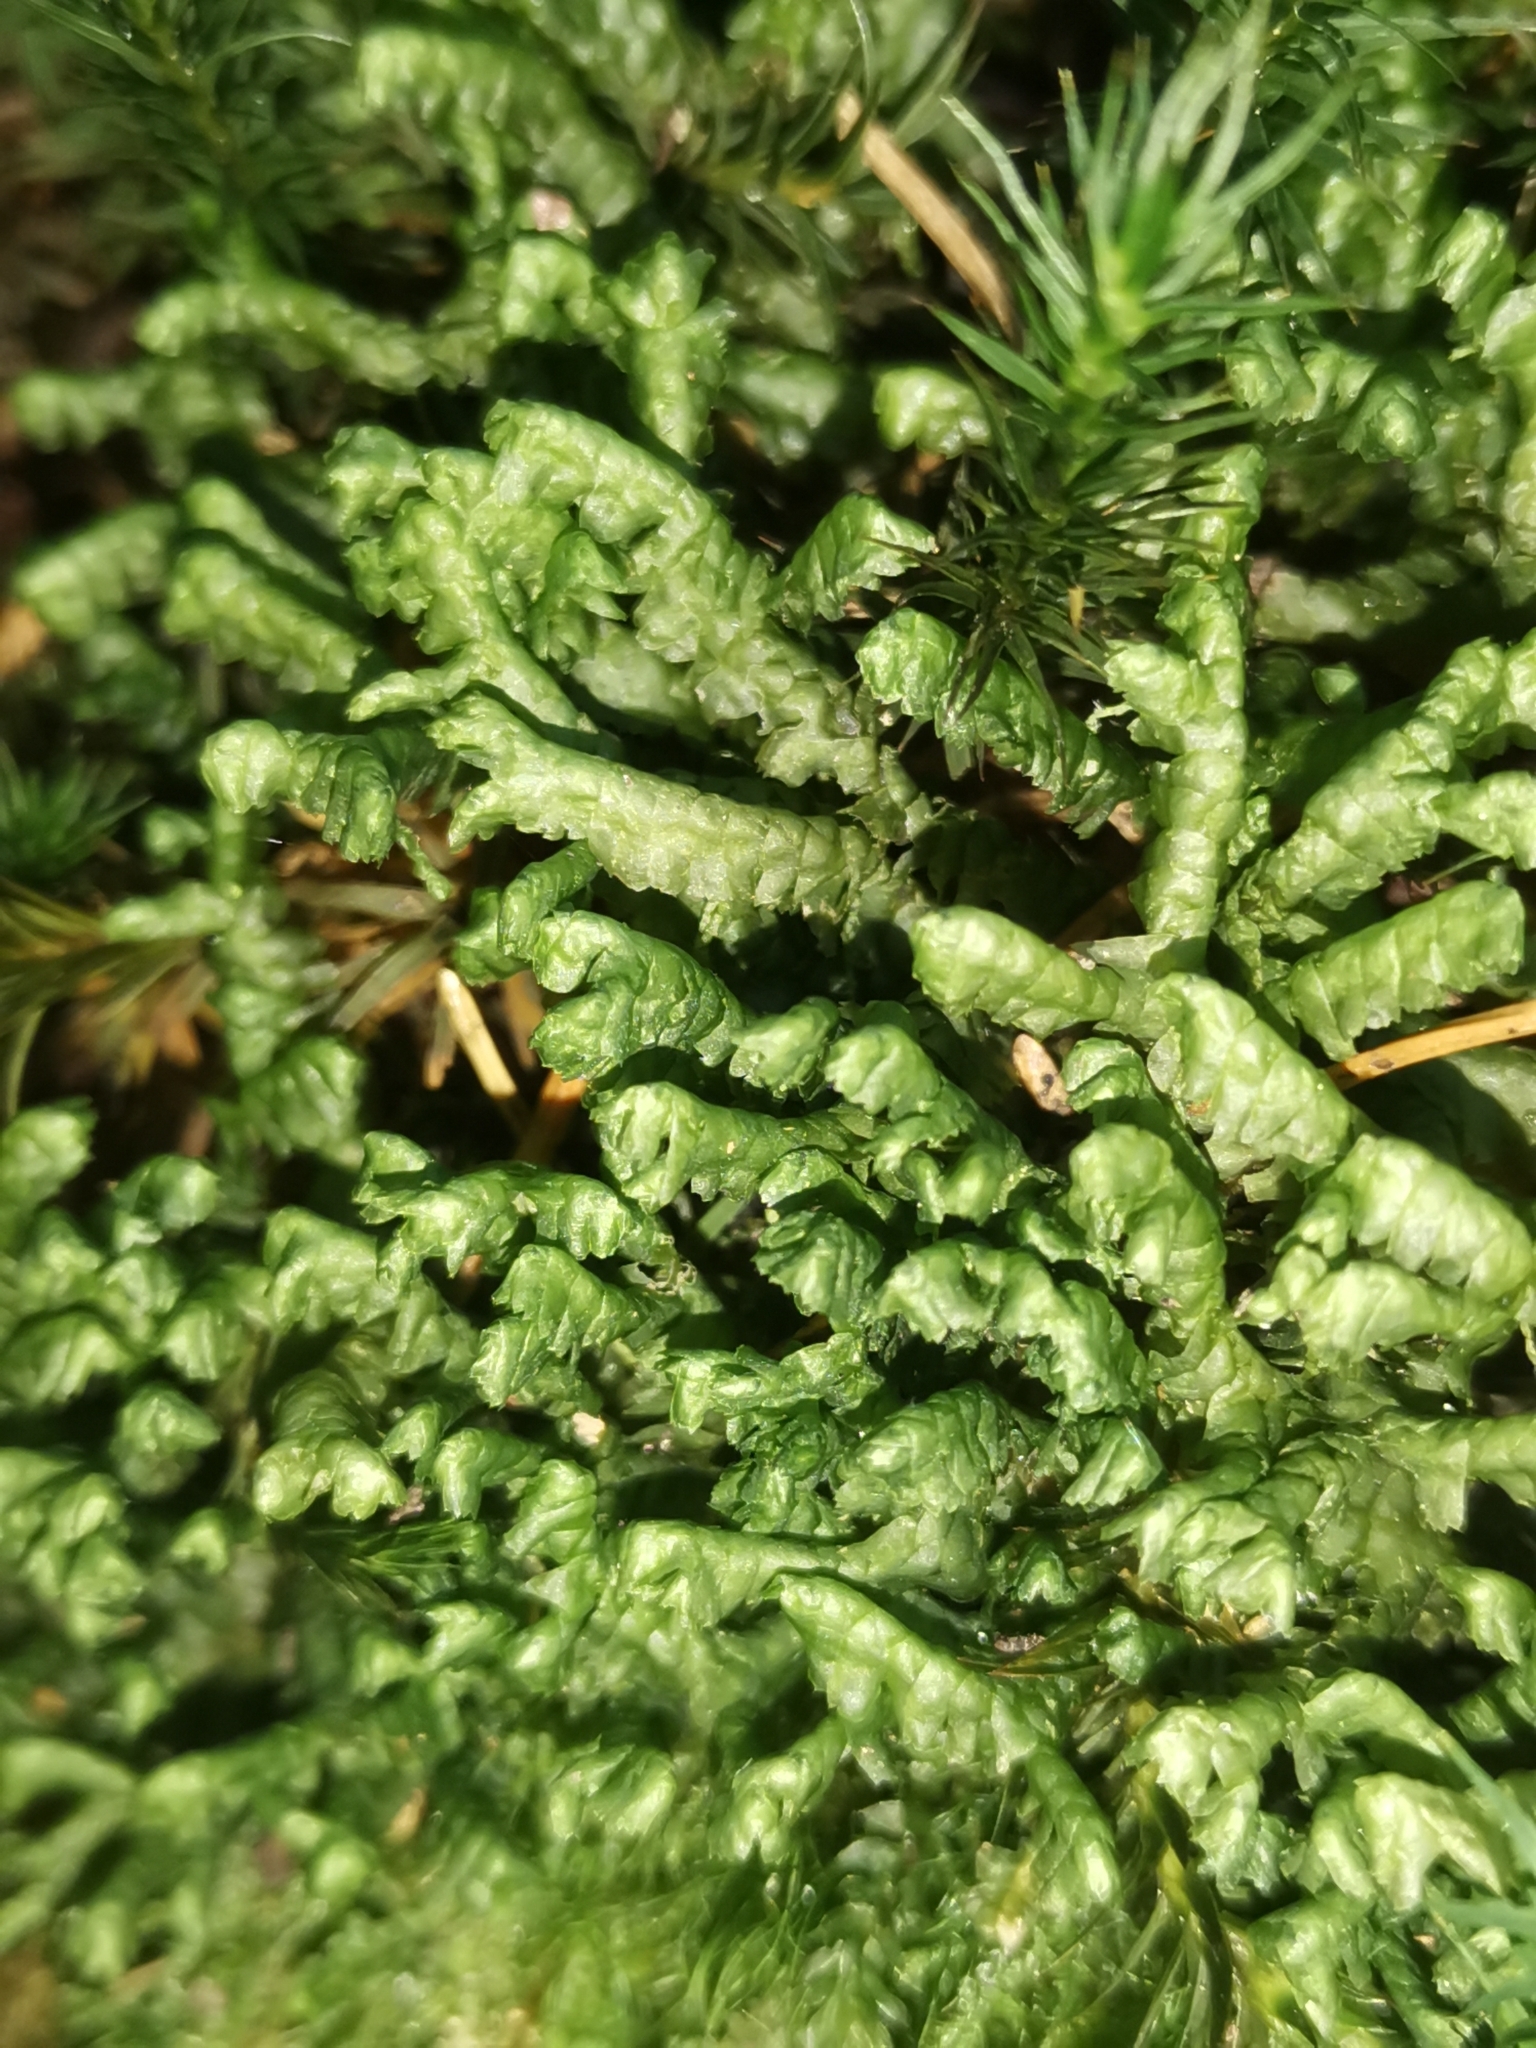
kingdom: Plantae
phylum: Marchantiophyta
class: Jungermanniopsida
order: Jungermanniales
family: Lepidoziaceae
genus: Bazzania
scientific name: Bazzania trilobata
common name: Three-lobed whipwort
